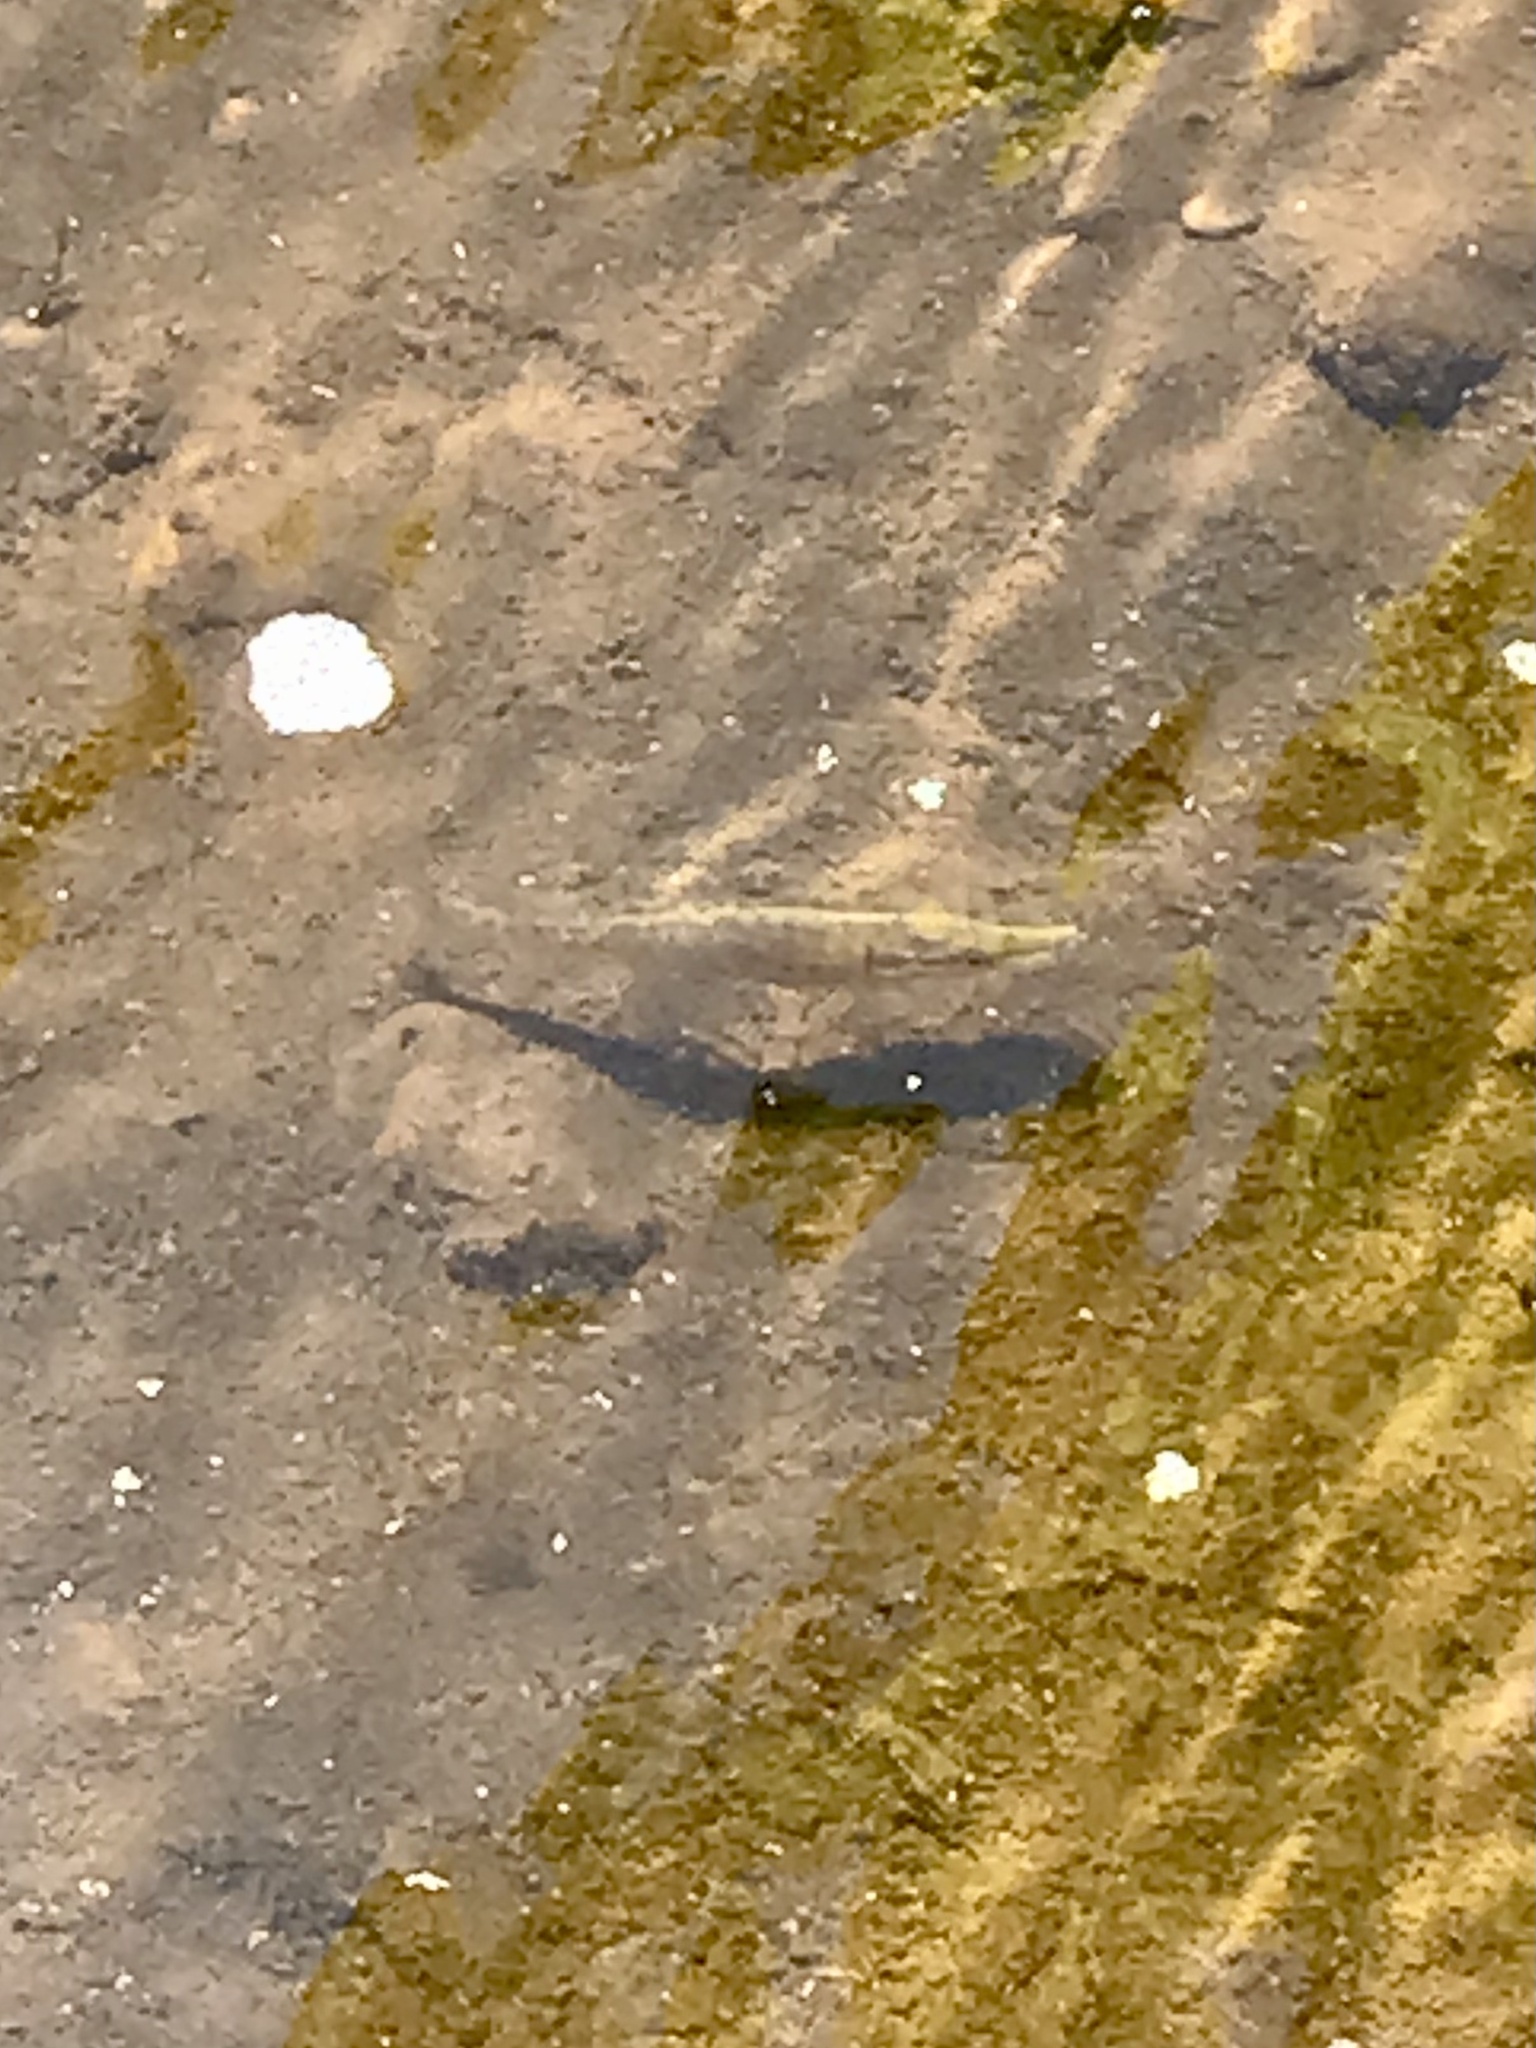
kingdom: Animalia
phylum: Chordata
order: Esociformes
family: Esocidae
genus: Esox
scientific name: Esox
